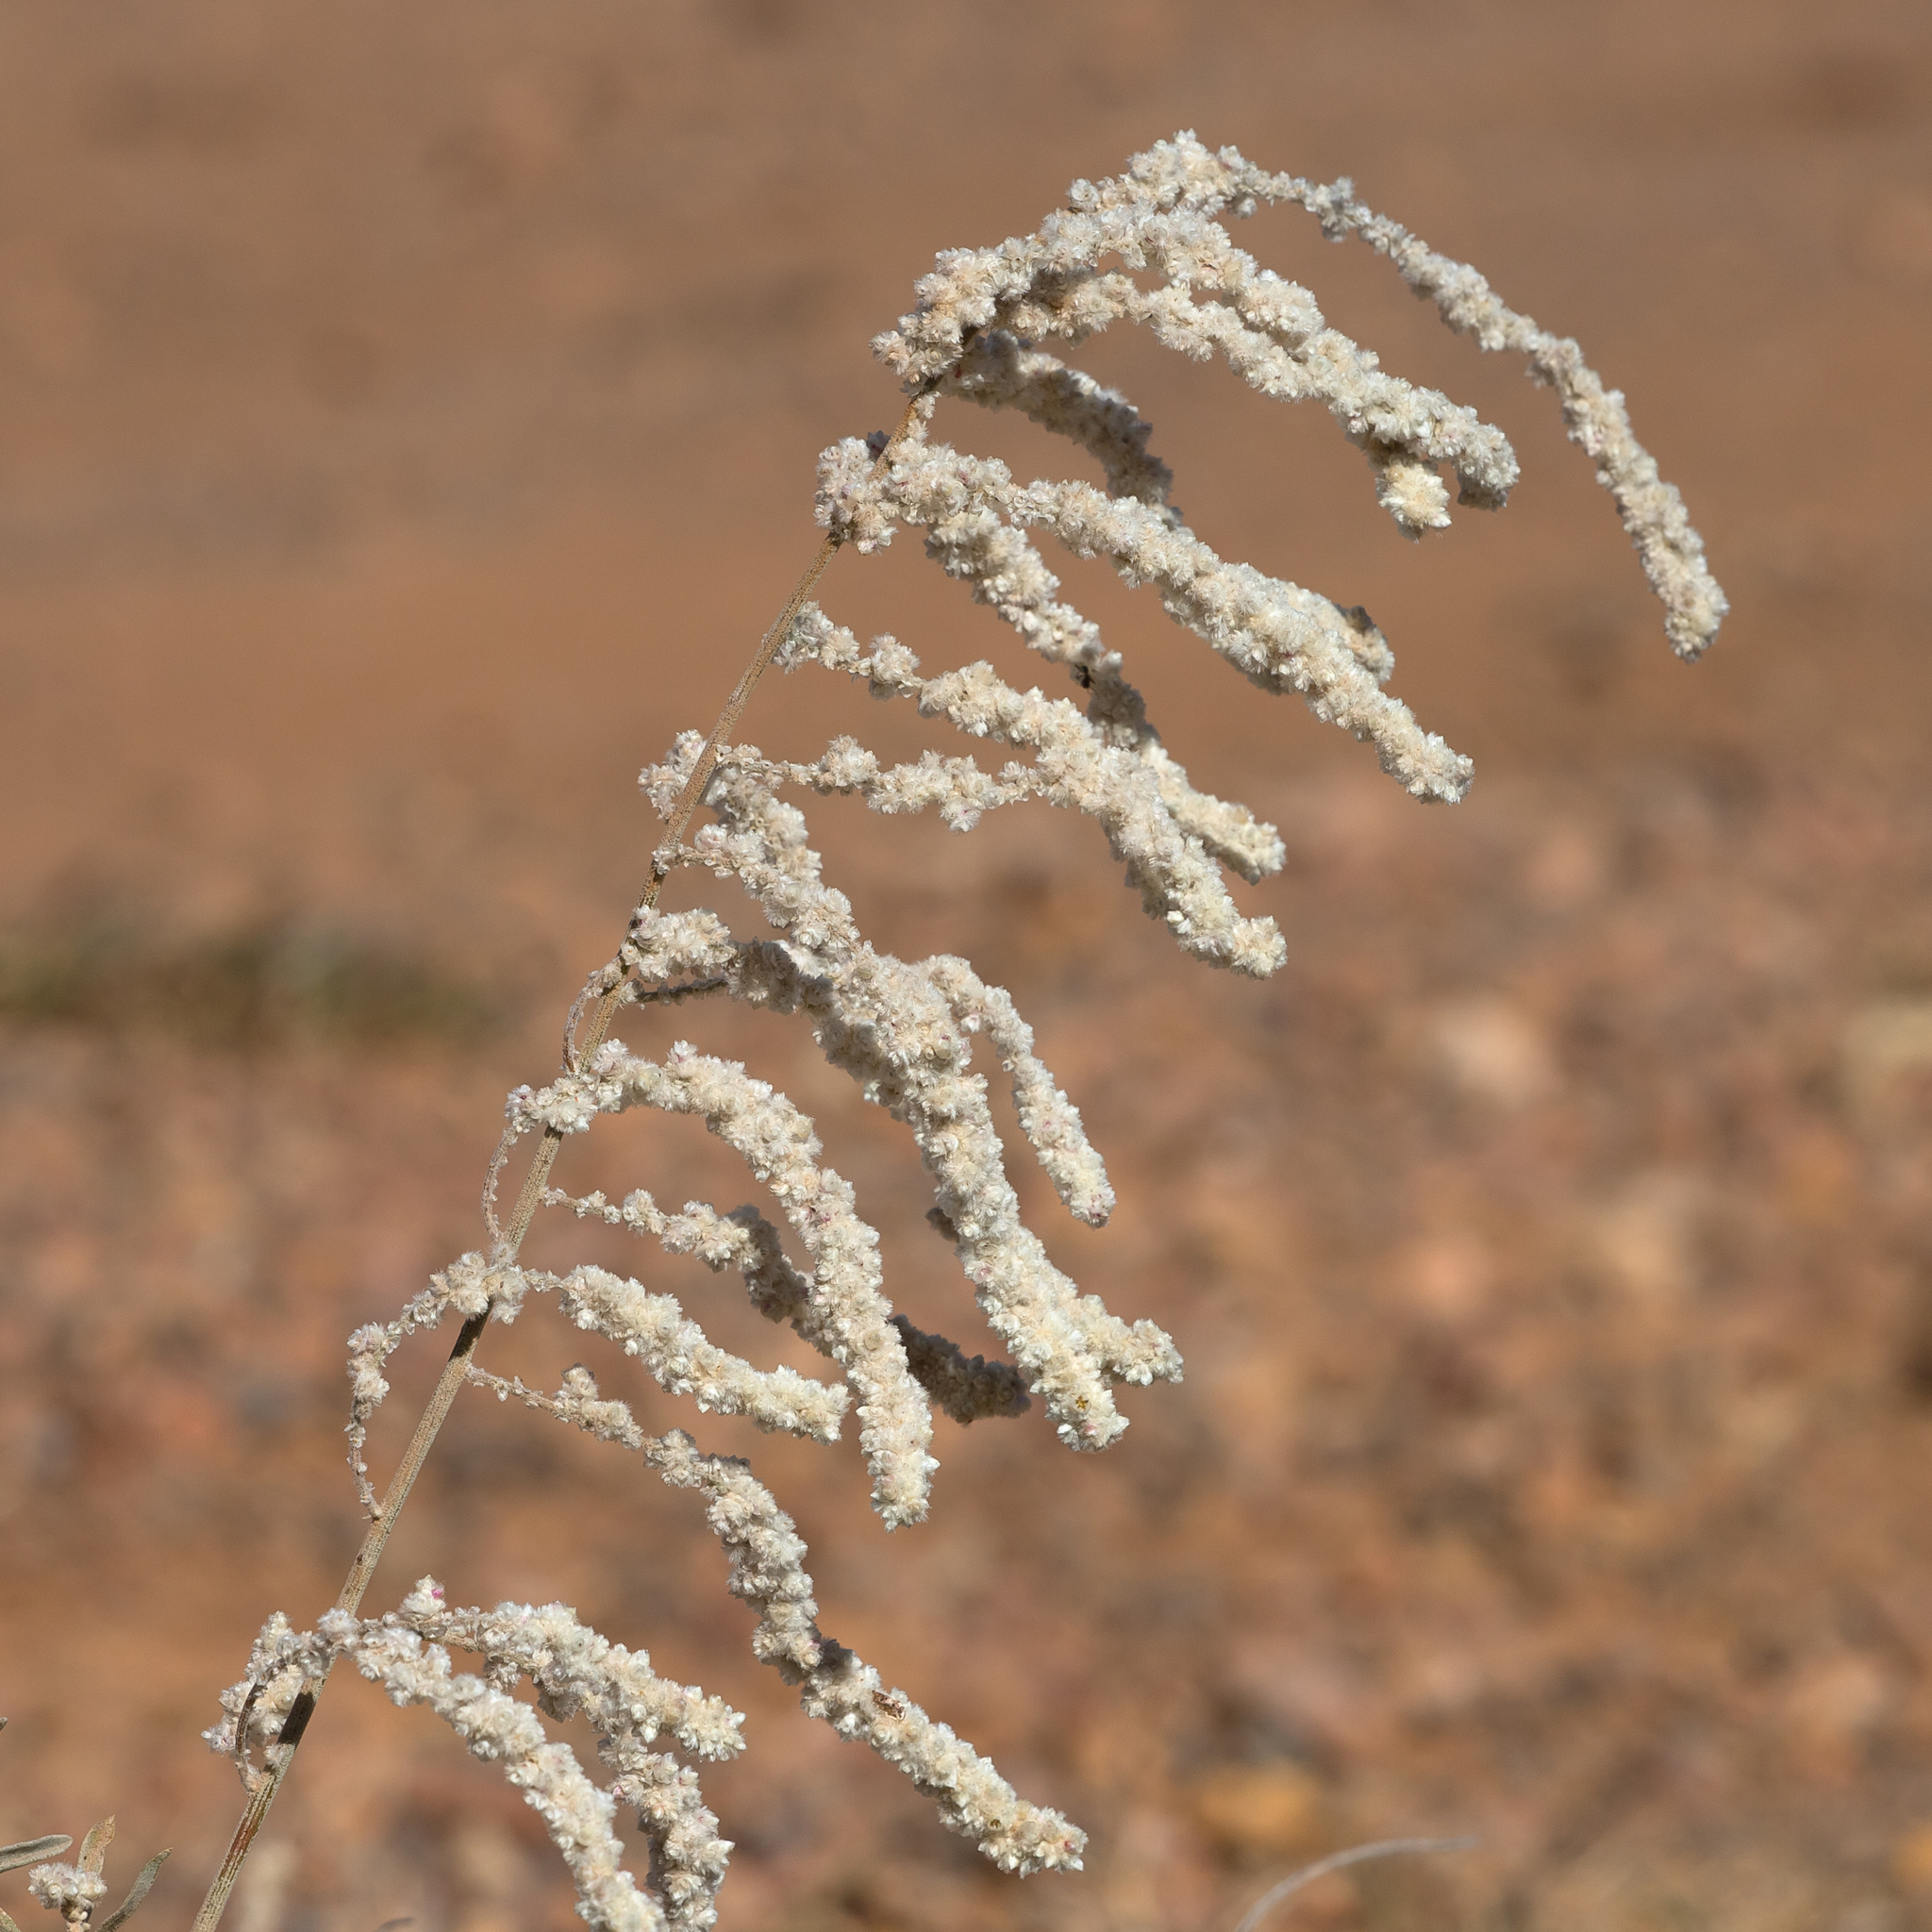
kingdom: Plantae
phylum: Tracheophyta
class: Magnoliopsida
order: Caryophyllales
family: Amaranthaceae
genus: Aerva
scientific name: Aerva javanica
